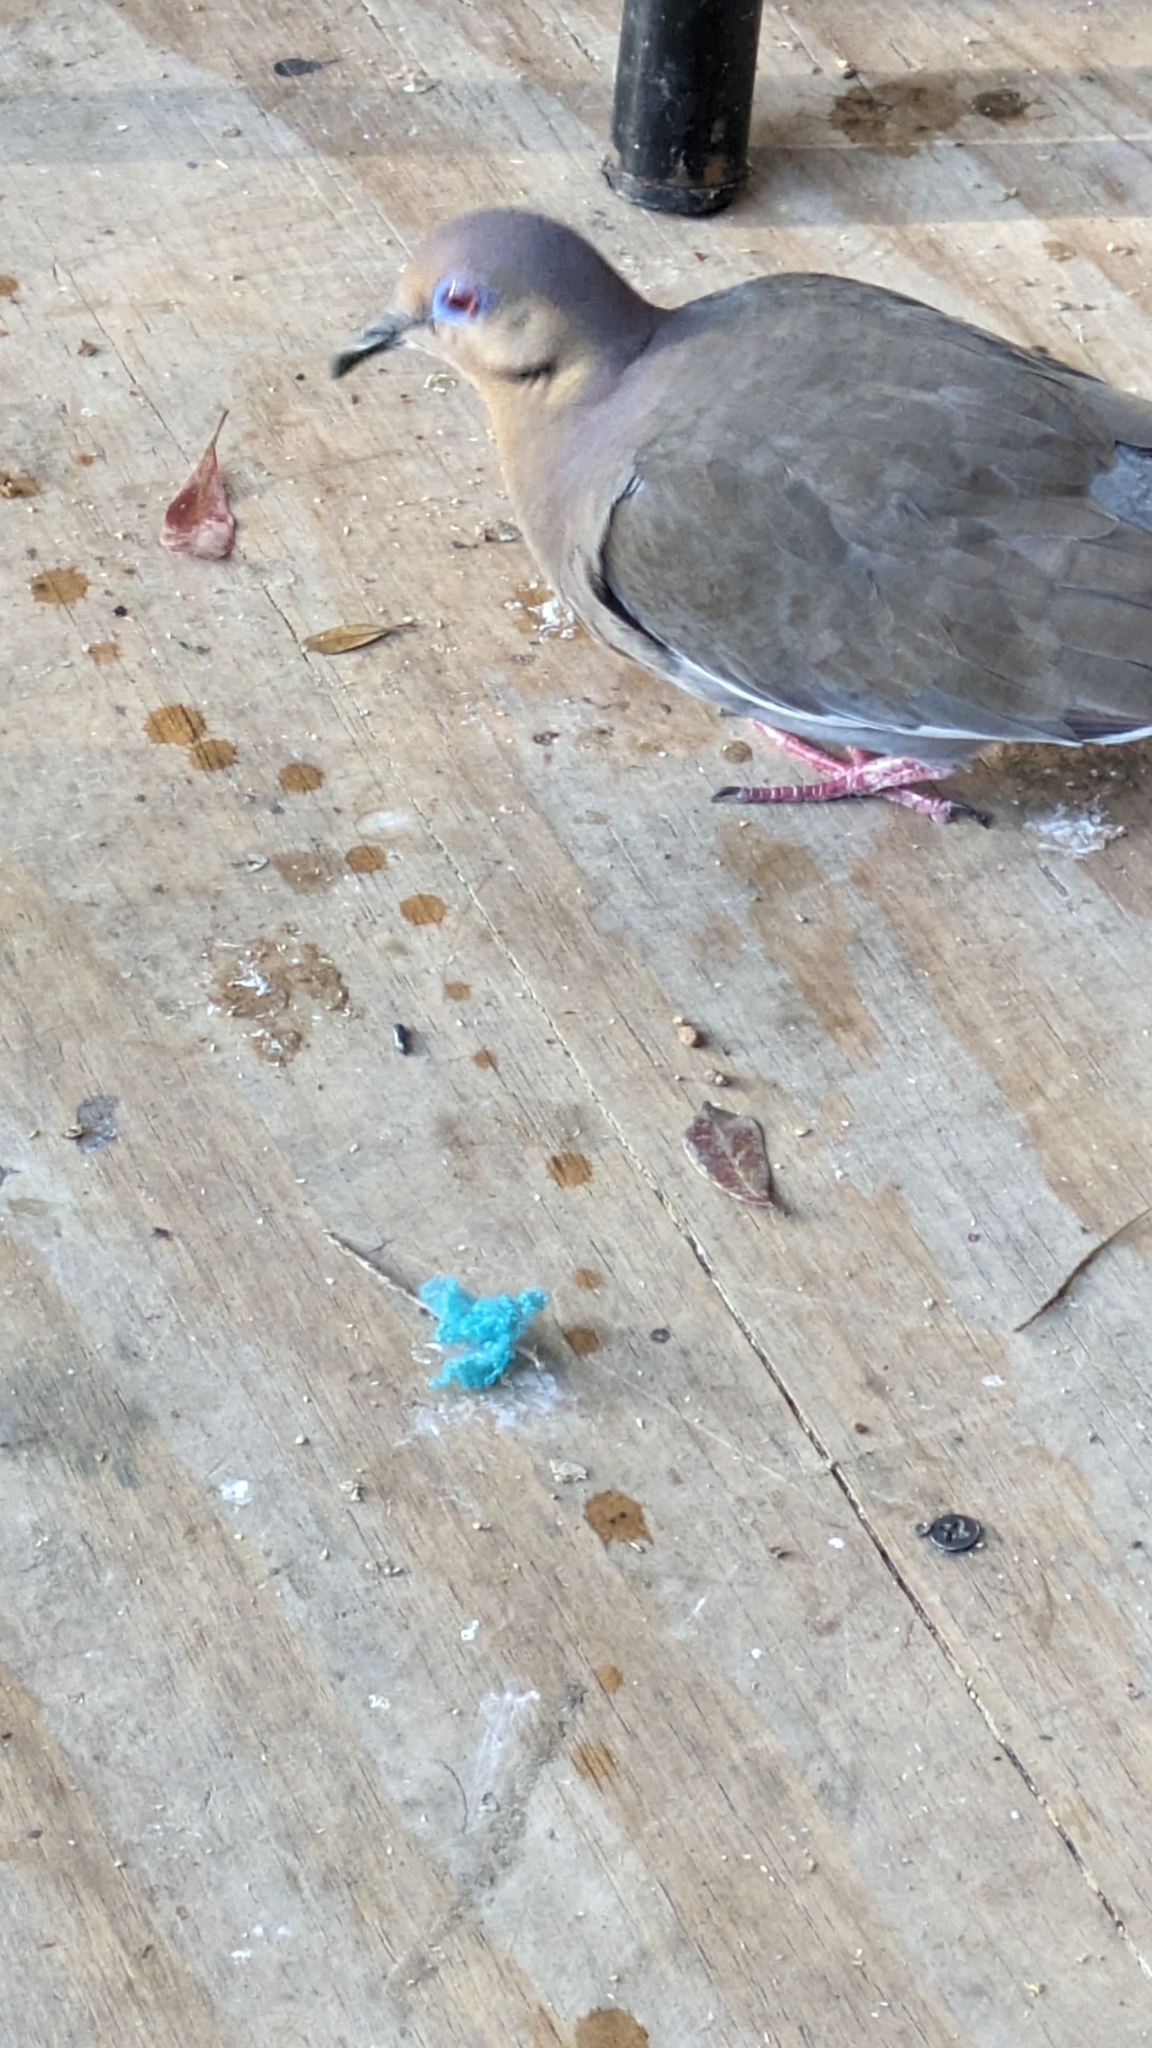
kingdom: Animalia
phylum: Chordata
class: Aves
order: Columbiformes
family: Columbidae
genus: Zenaida
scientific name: Zenaida asiatica
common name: White-winged dove
